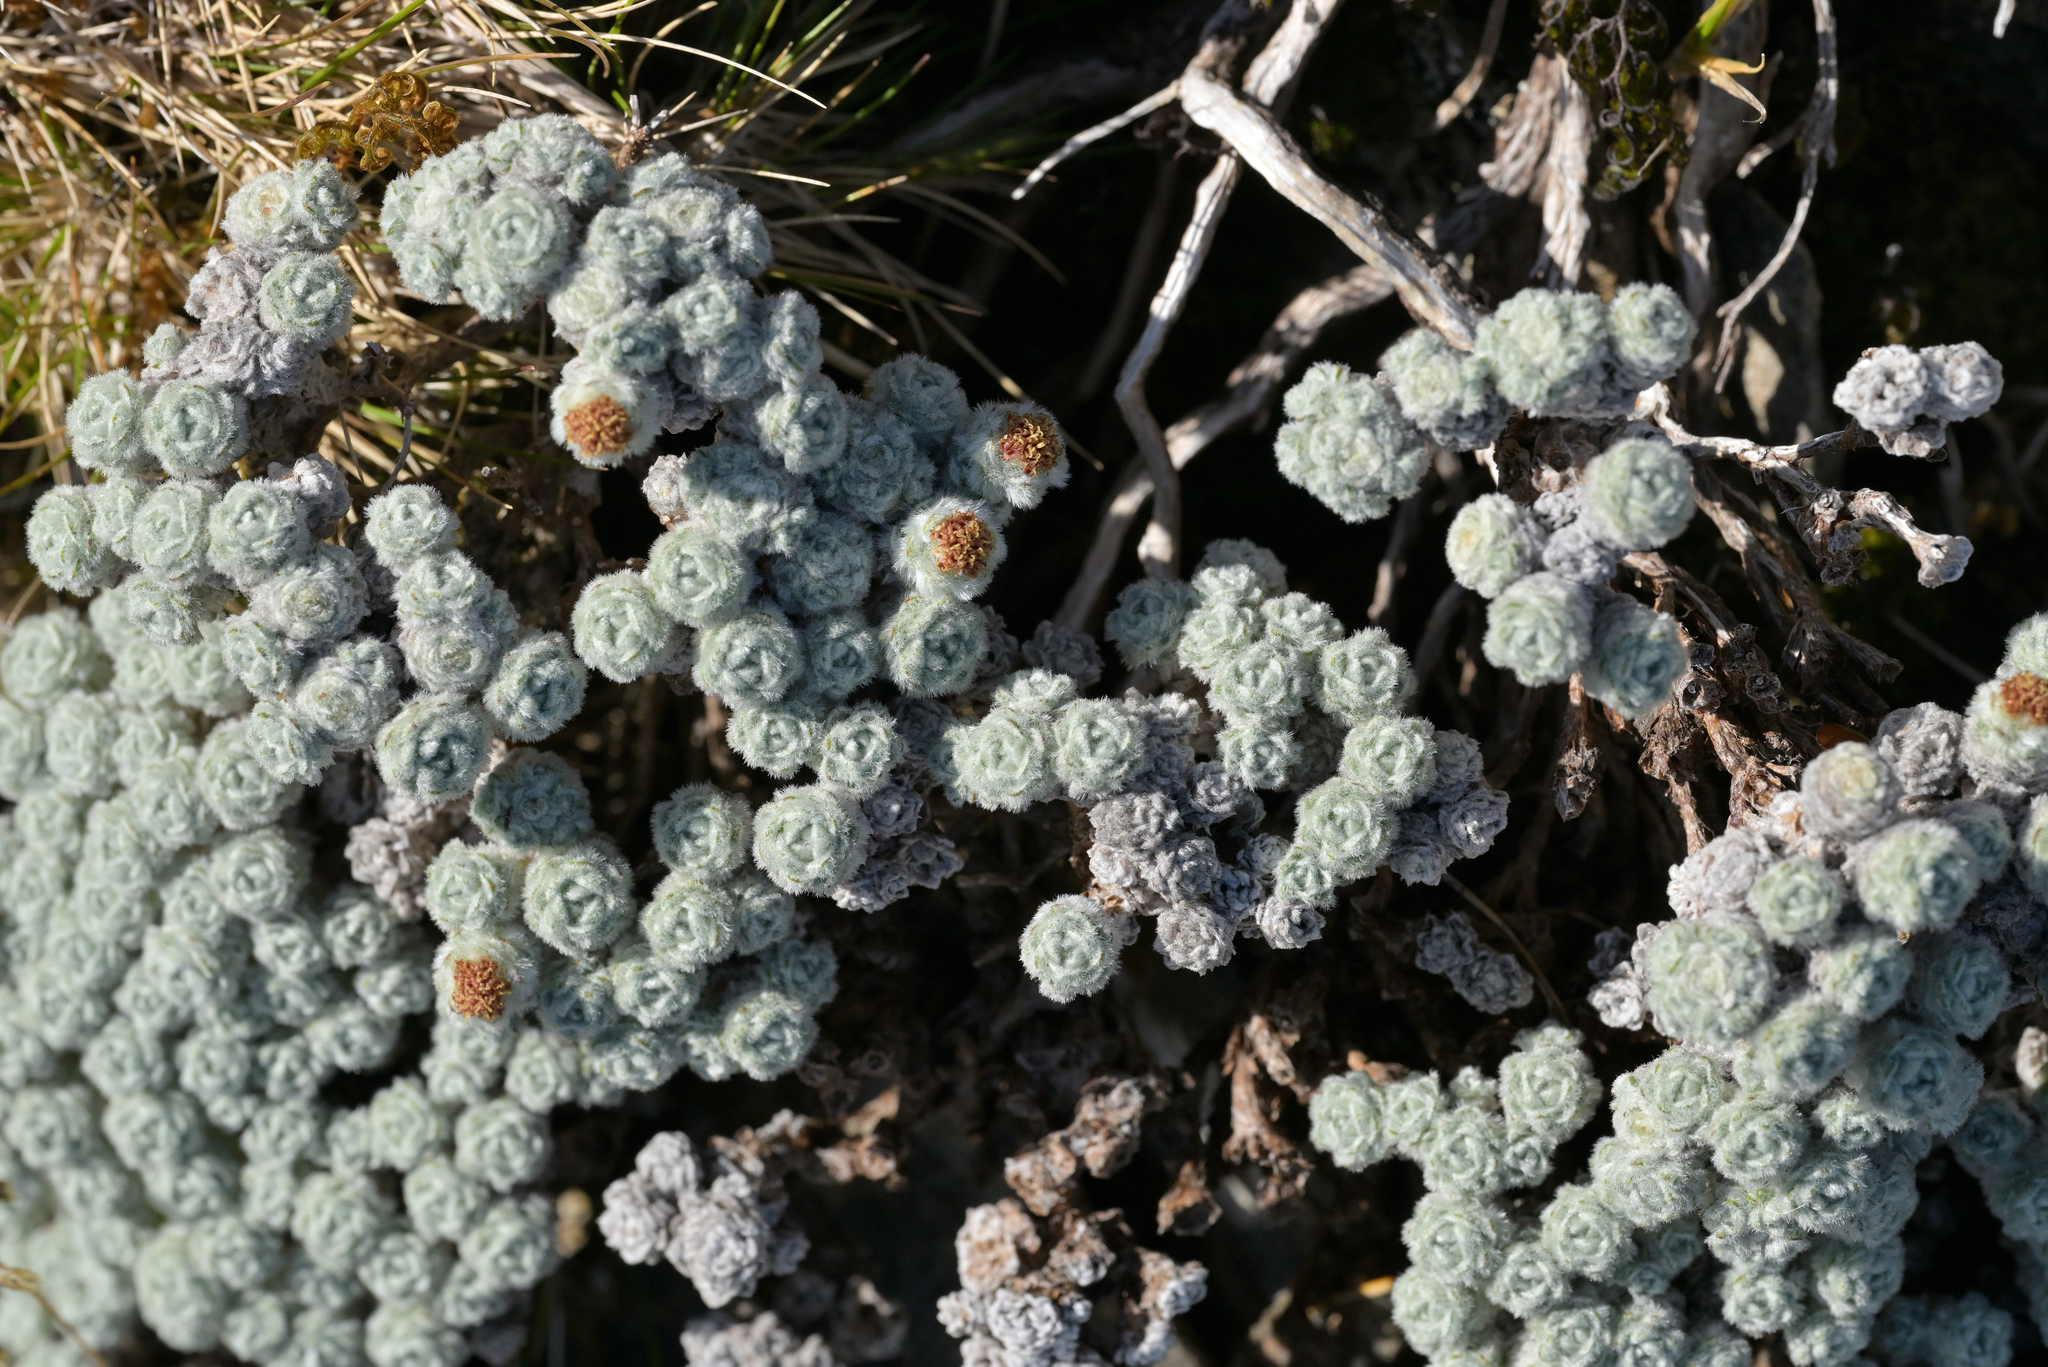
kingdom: Plantae
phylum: Tracheophyta
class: Magnoliopsida
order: Asterales
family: Asteraceae
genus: Raoulia
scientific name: Raoulia eximia
